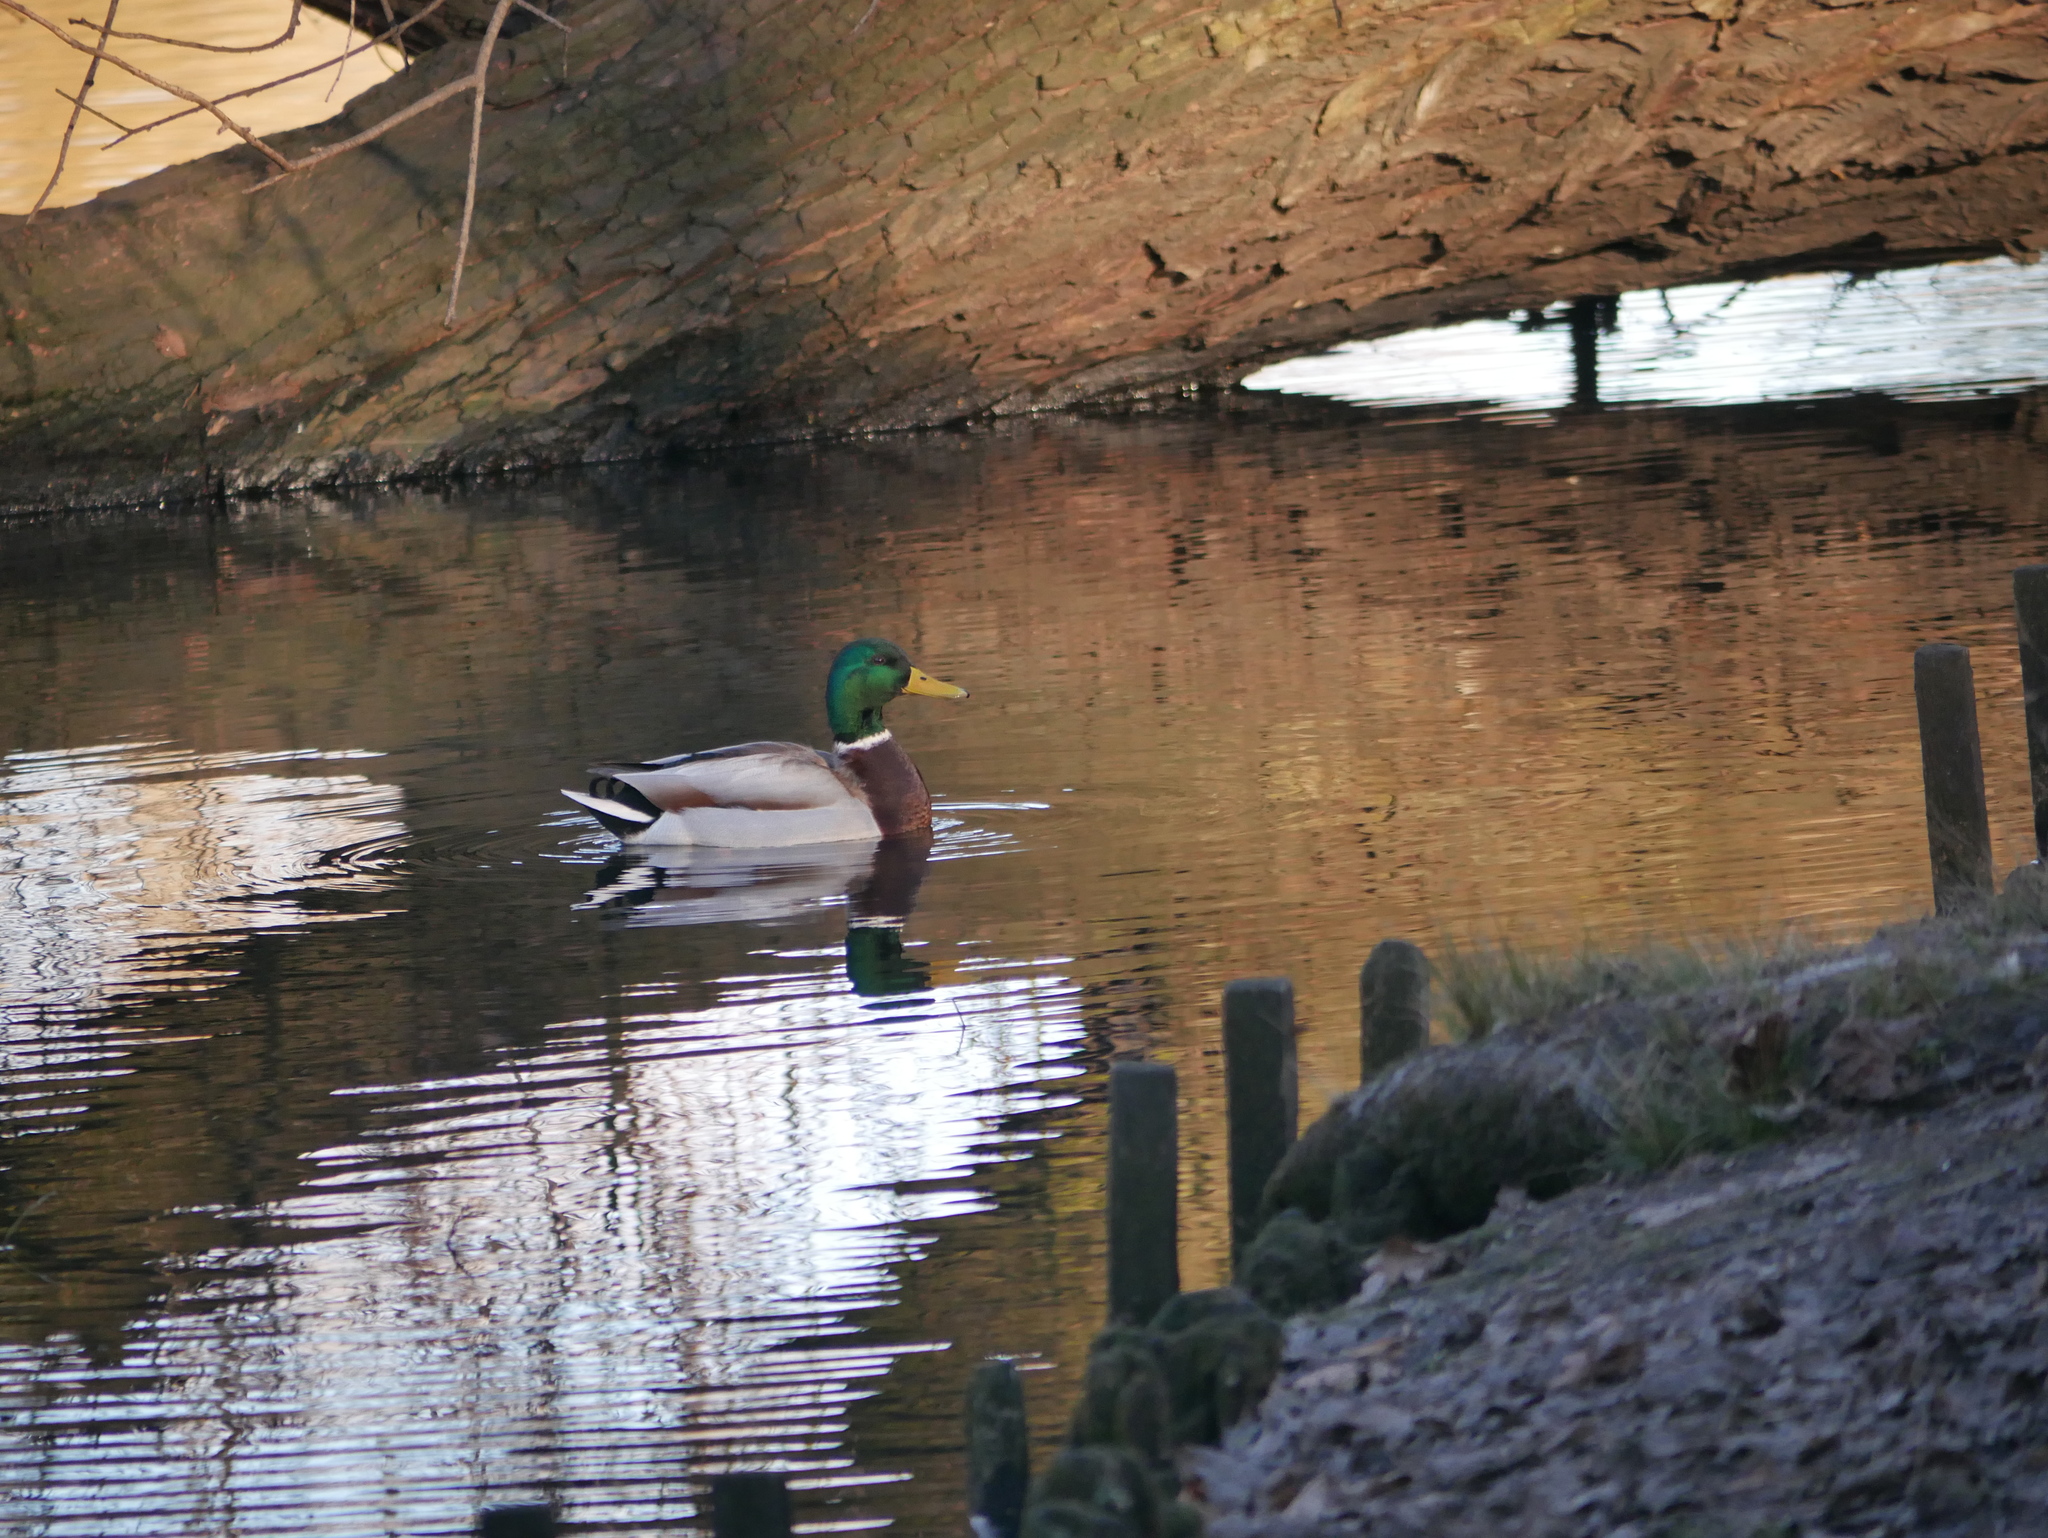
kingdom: Animalia
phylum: Chordata
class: Aves
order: Anseriformes
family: Anatidae
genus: Anas
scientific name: Anas platyrhynchos
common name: Mallard
